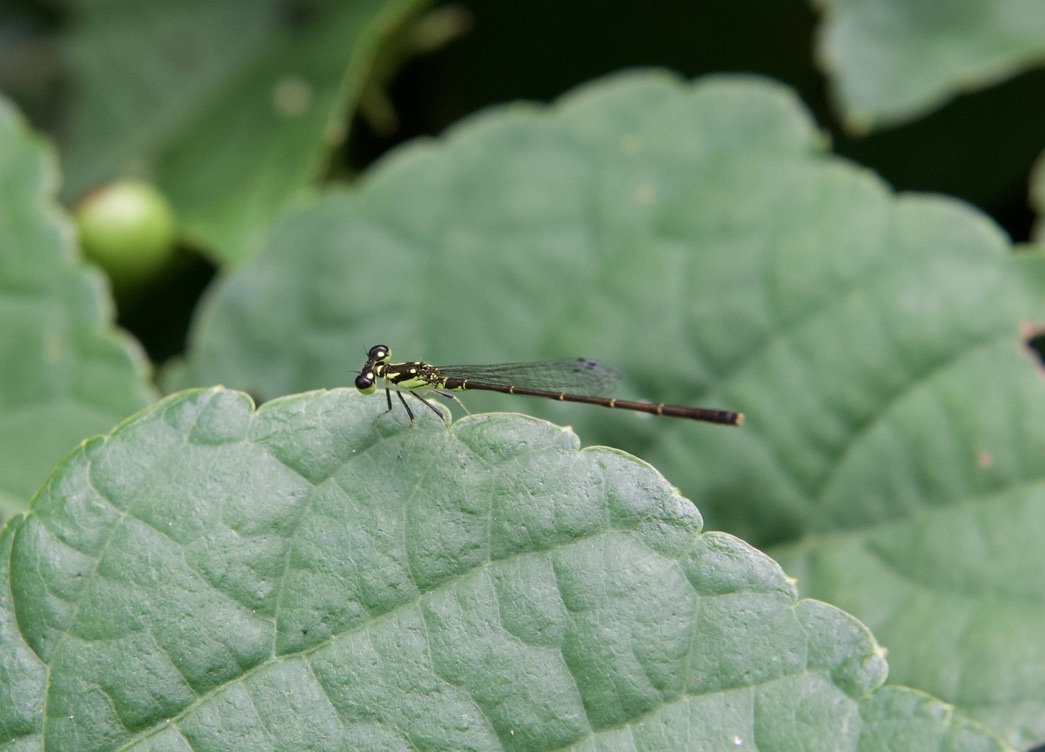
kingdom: Animalia
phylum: Arthropoda
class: Insecta
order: Odonata
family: Coenagrionidae
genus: Ischnura
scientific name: Ischnura posita
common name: Fragile forktail
